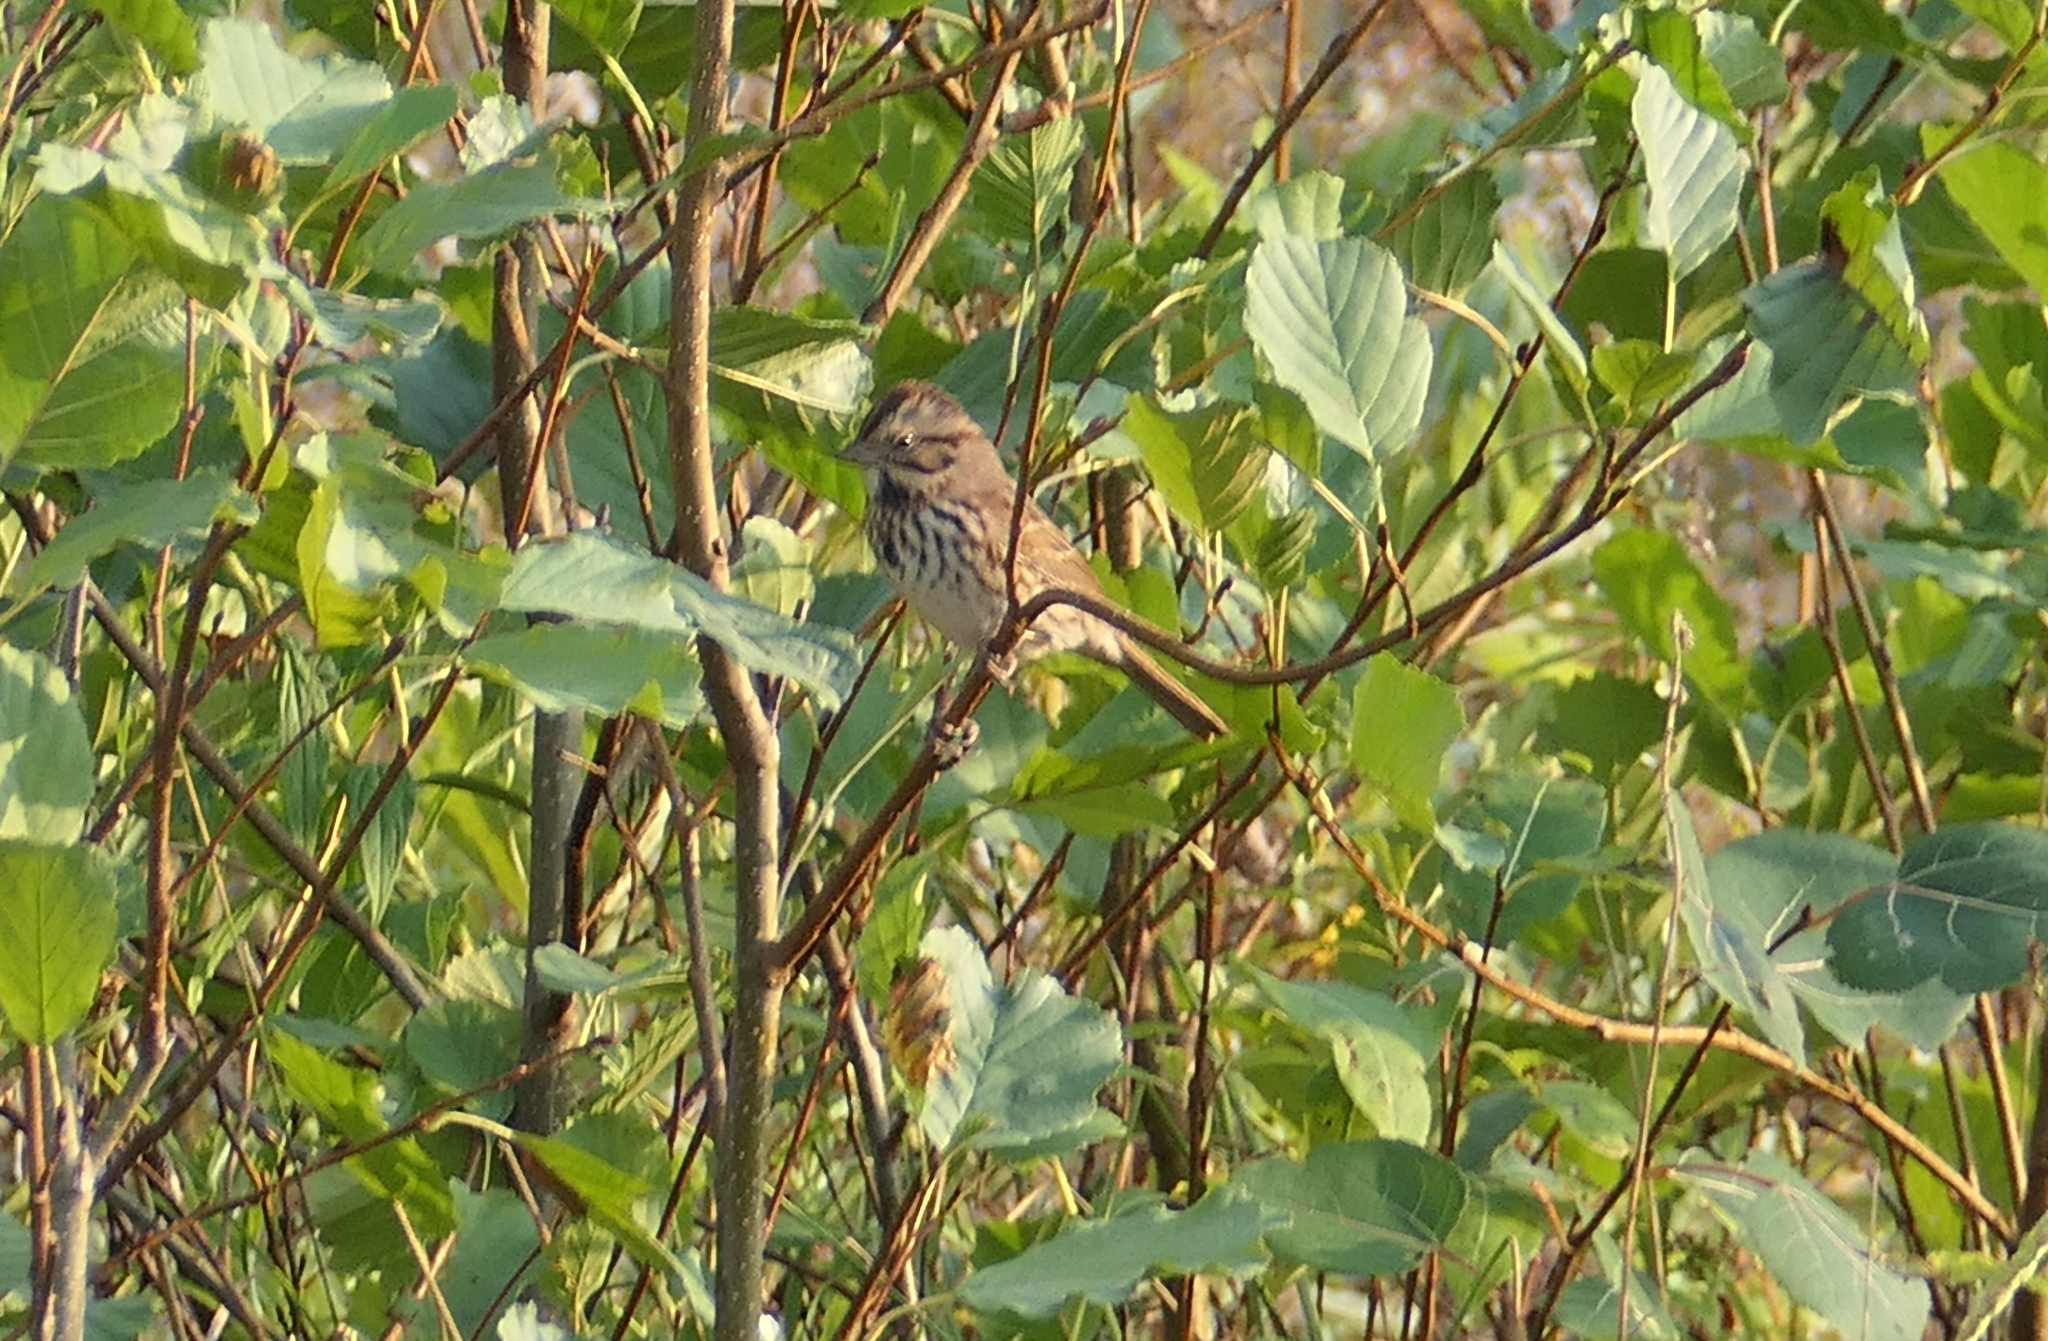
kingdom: Animalia
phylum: Chordata
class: Aves
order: Passeriformes
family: Passerellidae
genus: Melospiza
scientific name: Melospiza melodia
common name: Song sparrow
